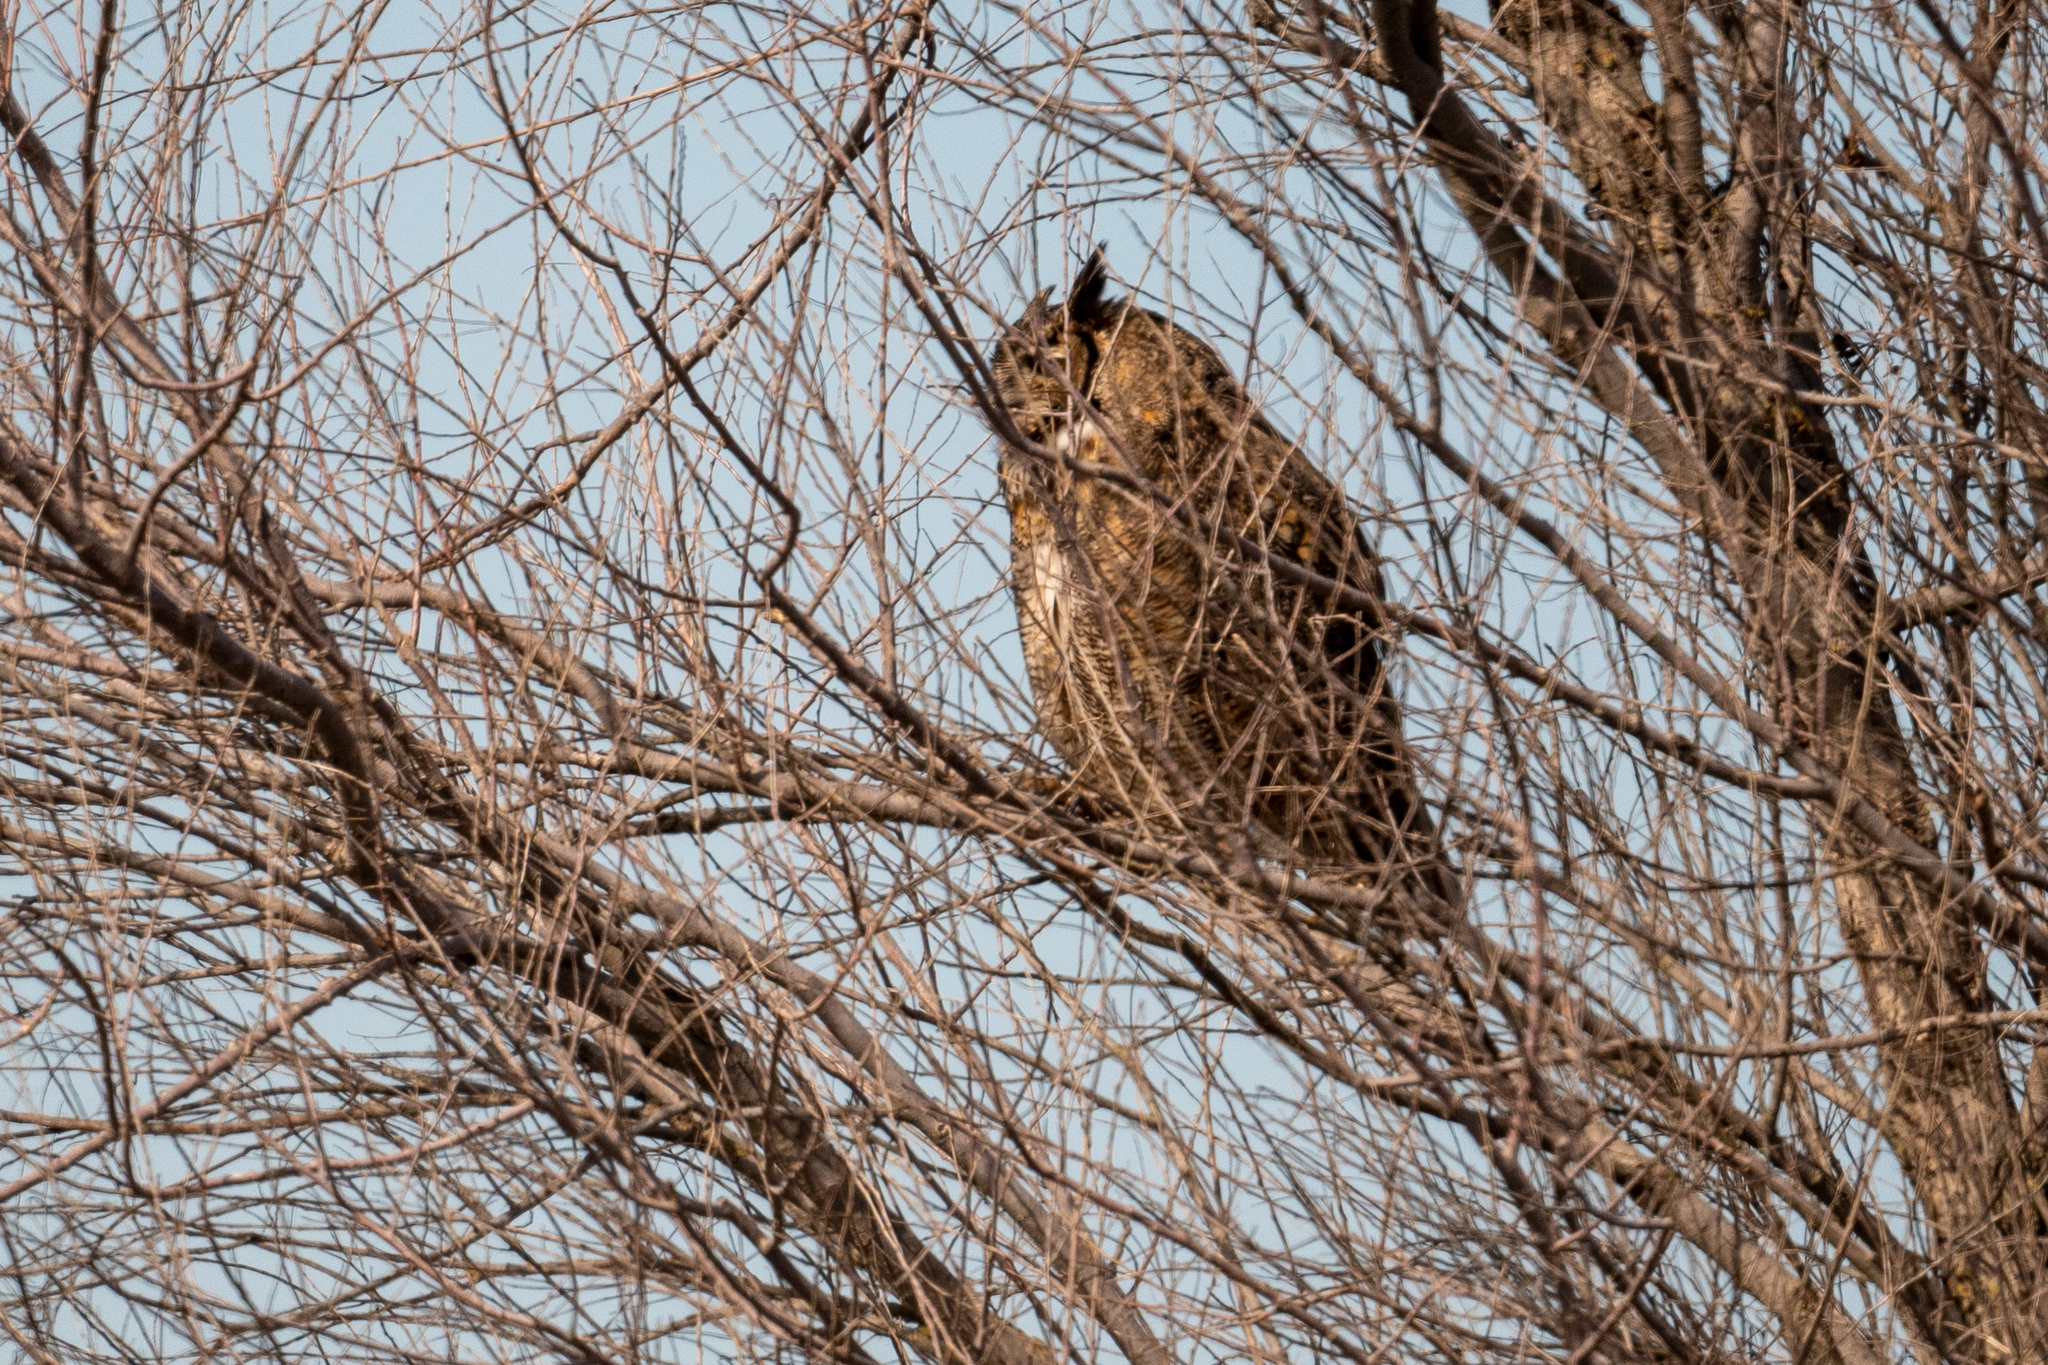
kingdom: Animalia
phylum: Chordata
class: Aves
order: Strigiformes
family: Strigidae
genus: Bubo
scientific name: Bubo virginianus
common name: Great horned owl
